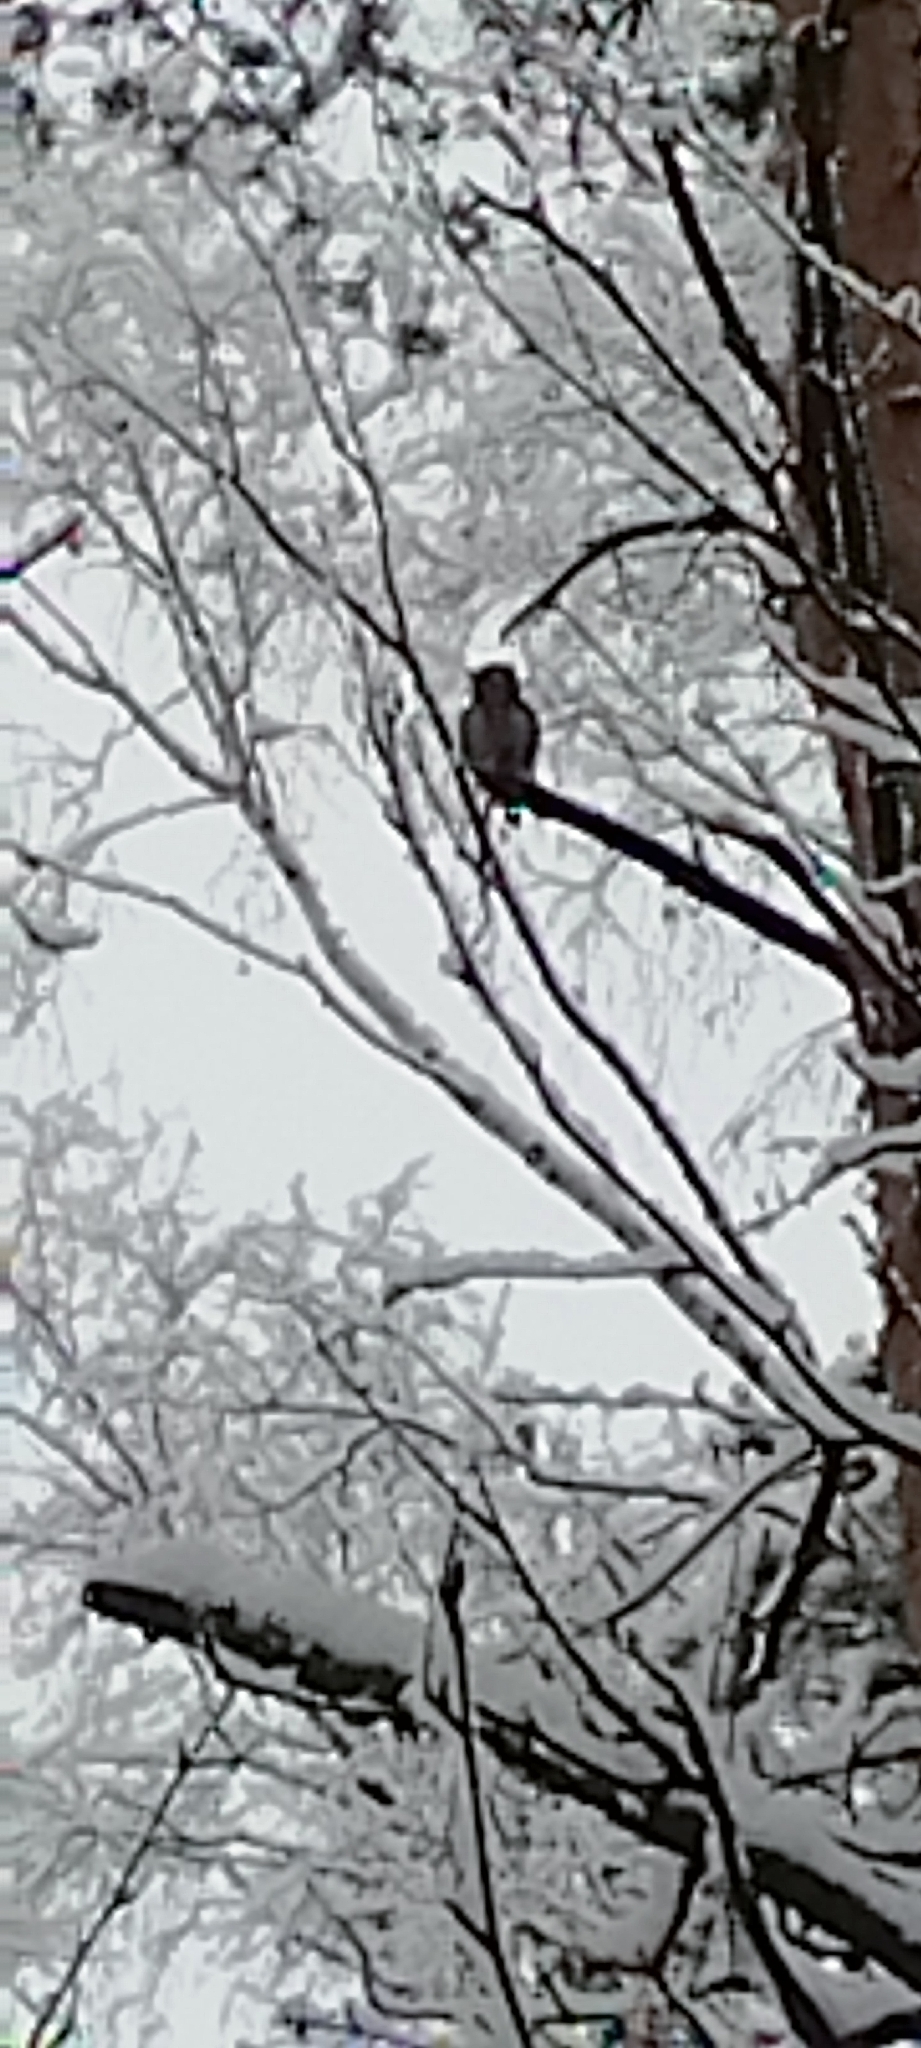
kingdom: Animalia
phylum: Chordata
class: Aves
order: Strigiformes
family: Strigidae
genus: Glaucidium
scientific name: Glaucidium passerinum
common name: Eurasian pygmy owl
